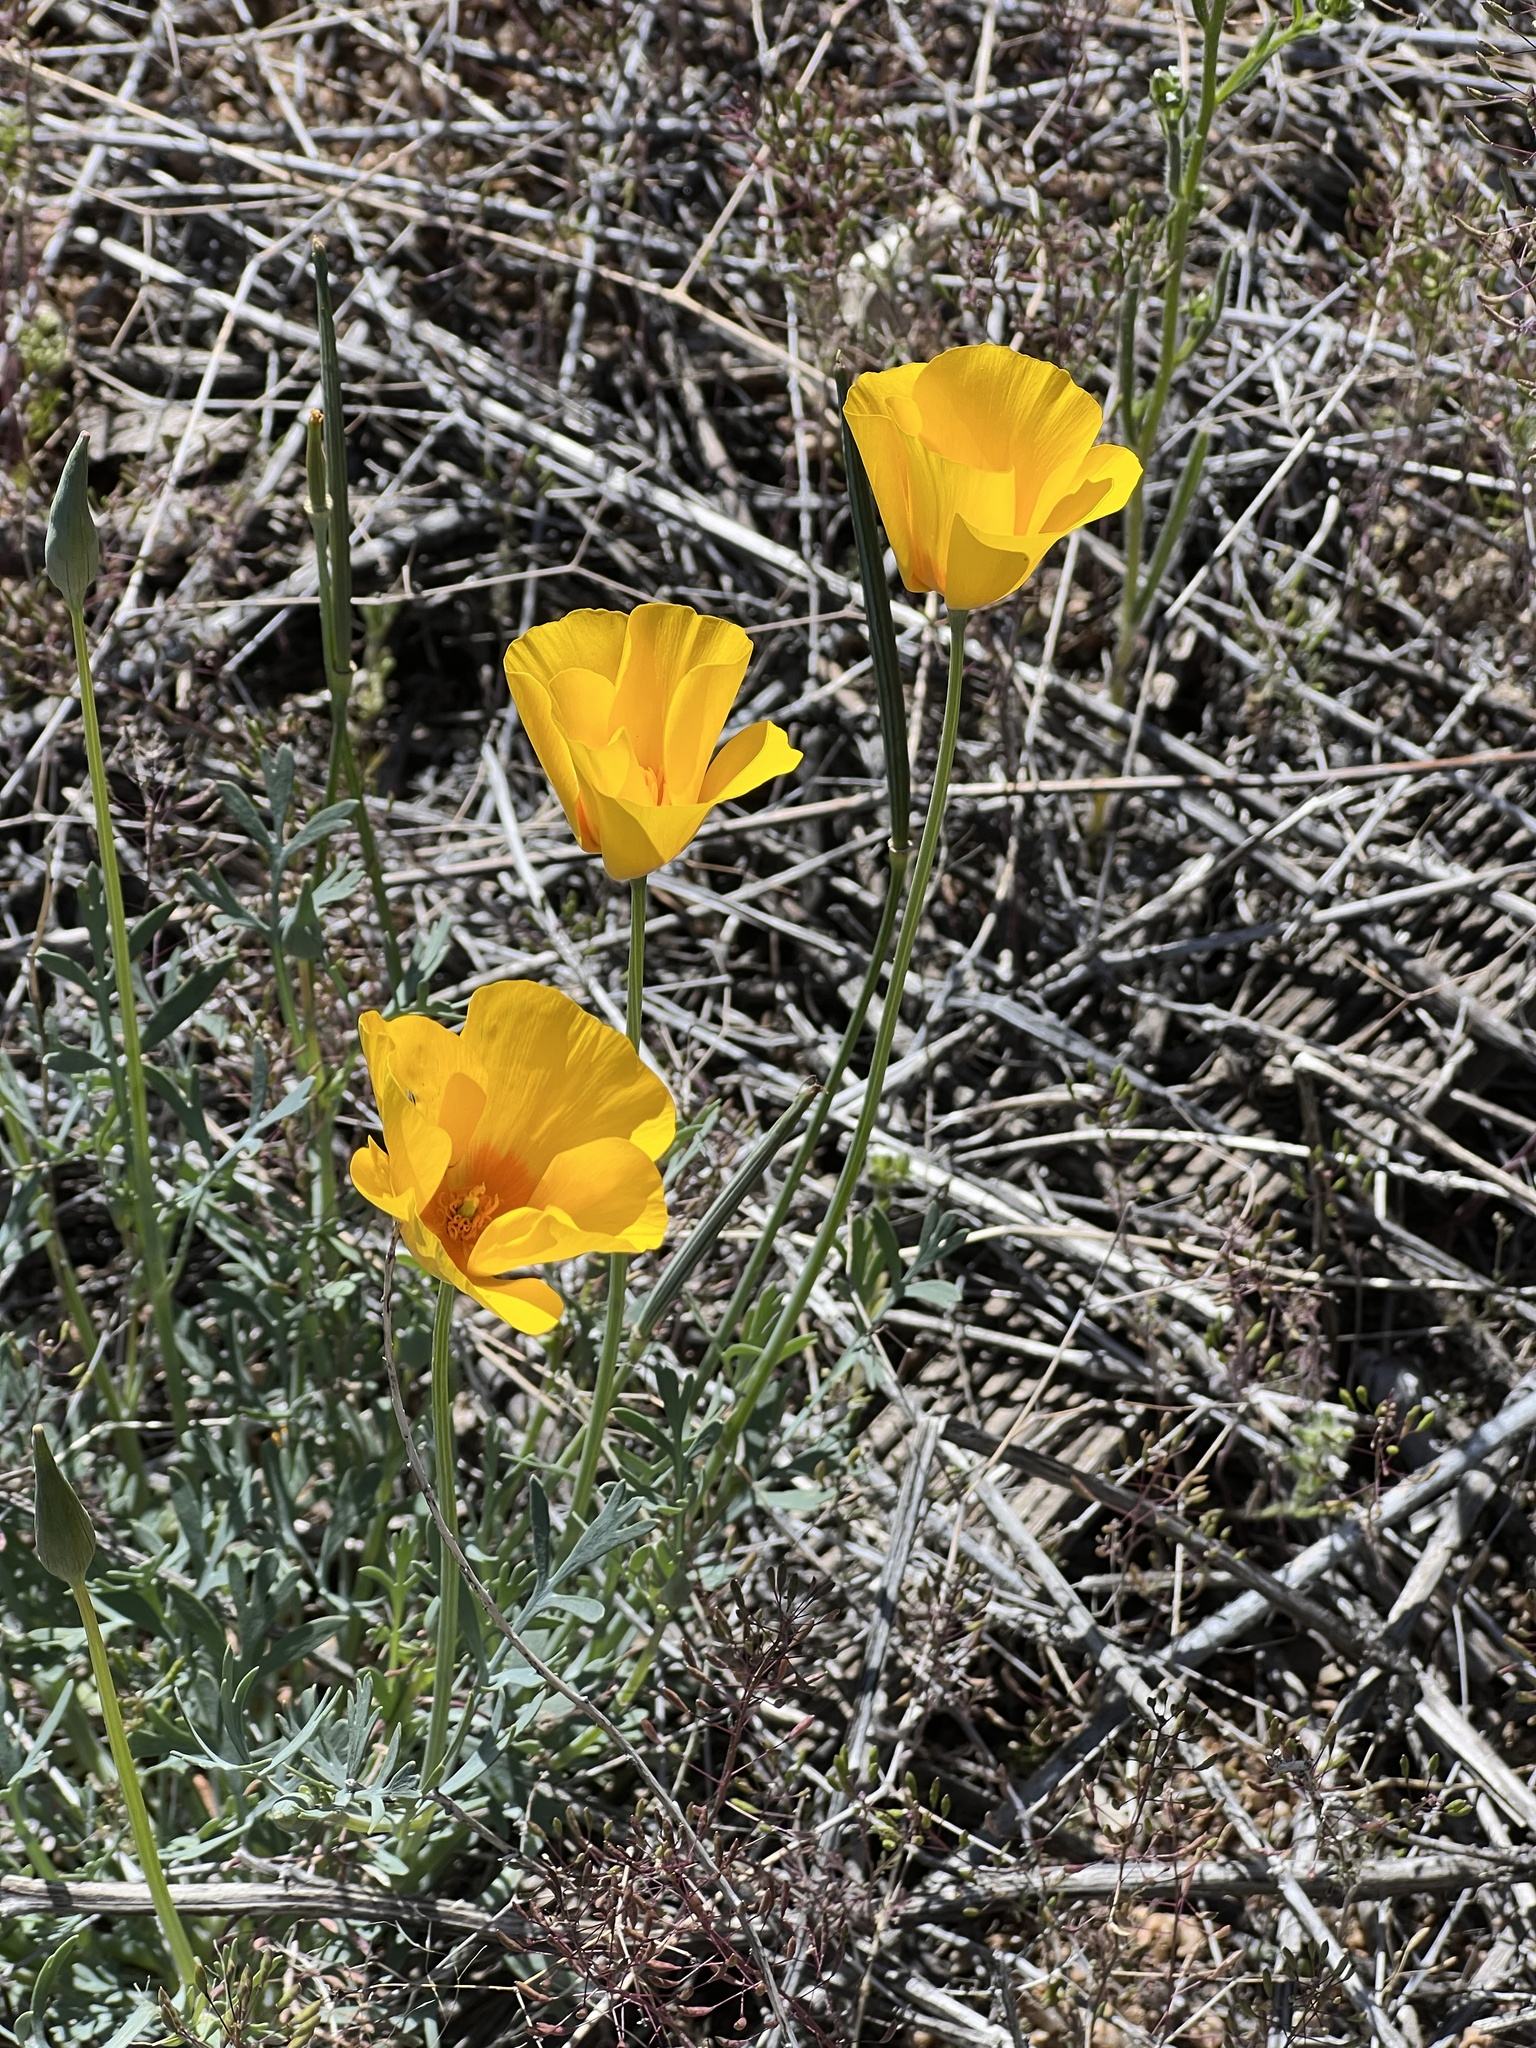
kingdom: Plantae
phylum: Tracheophyta
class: Magnoliopsida
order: Ranunculales
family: Papaveraceae
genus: Eschscholzia
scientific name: Eschscholzia californica
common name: California poppy
